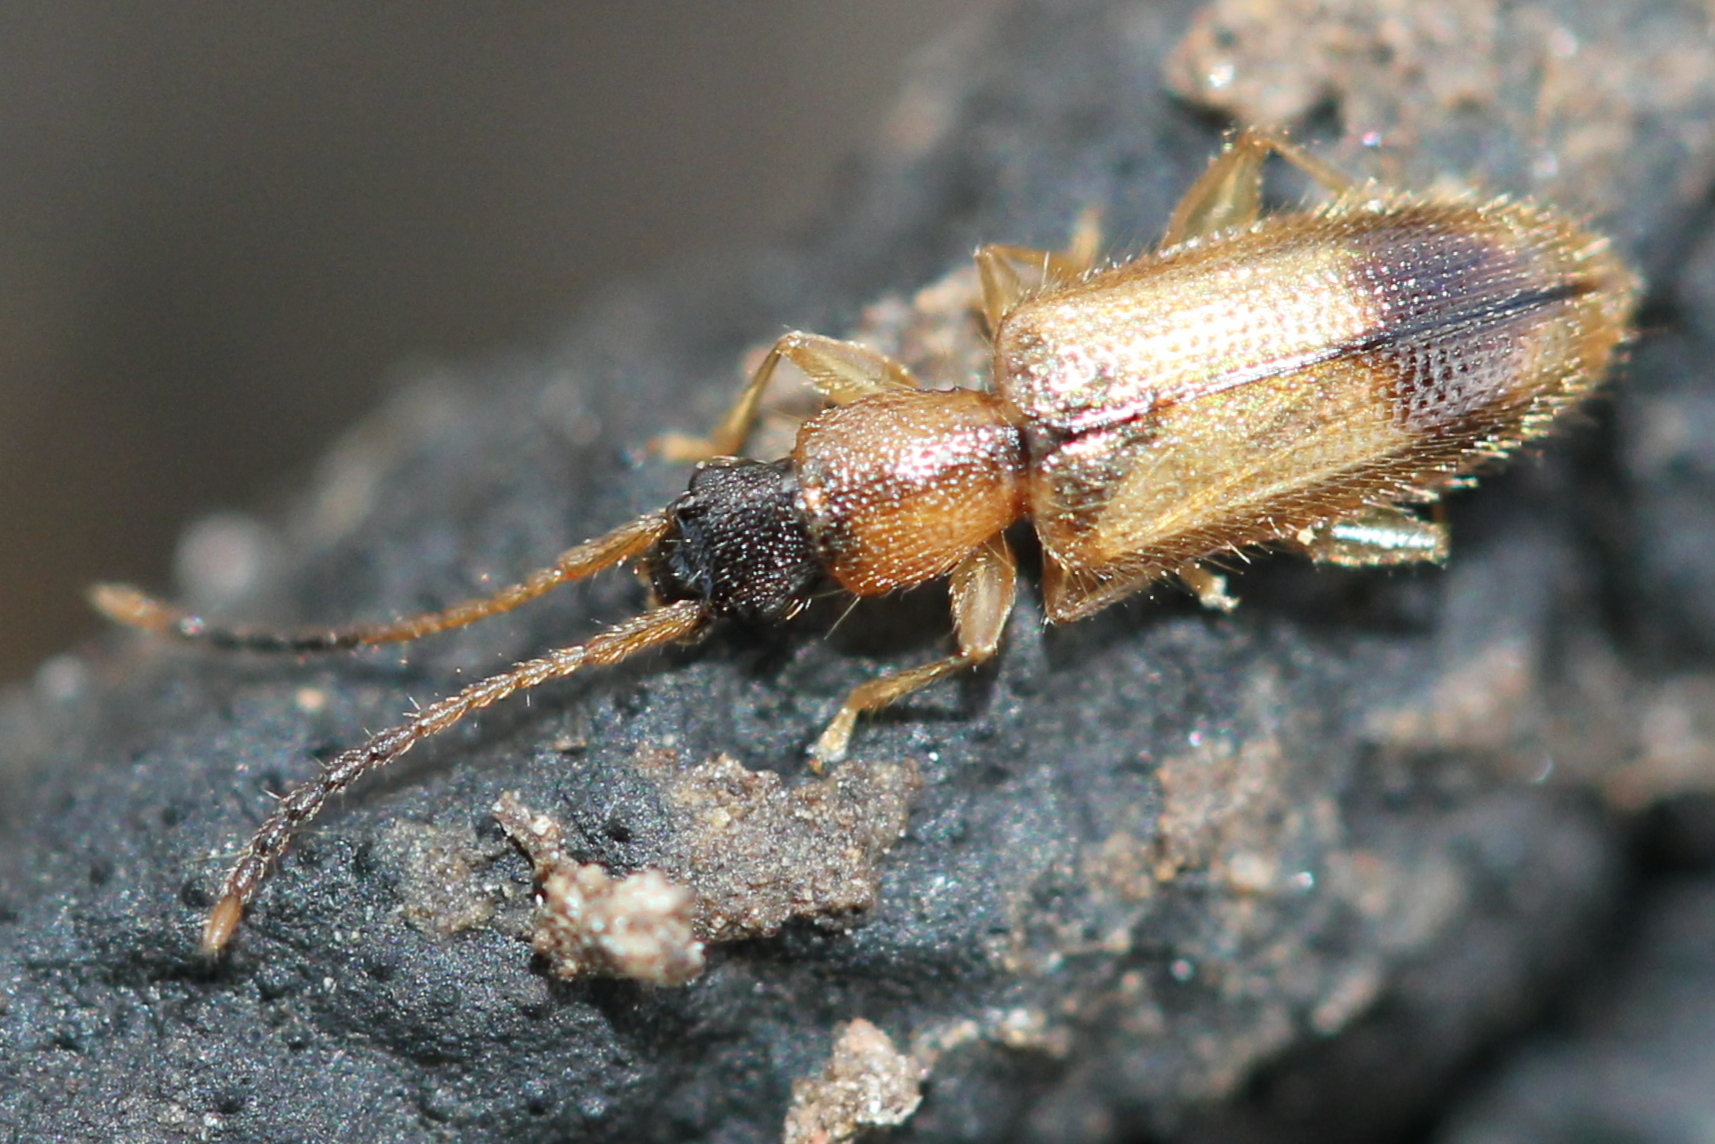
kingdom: Animalia
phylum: Arthropoda
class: Insecta
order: Coleoptera
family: Silvanidae
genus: Telephanus
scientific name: Telephanus velox
